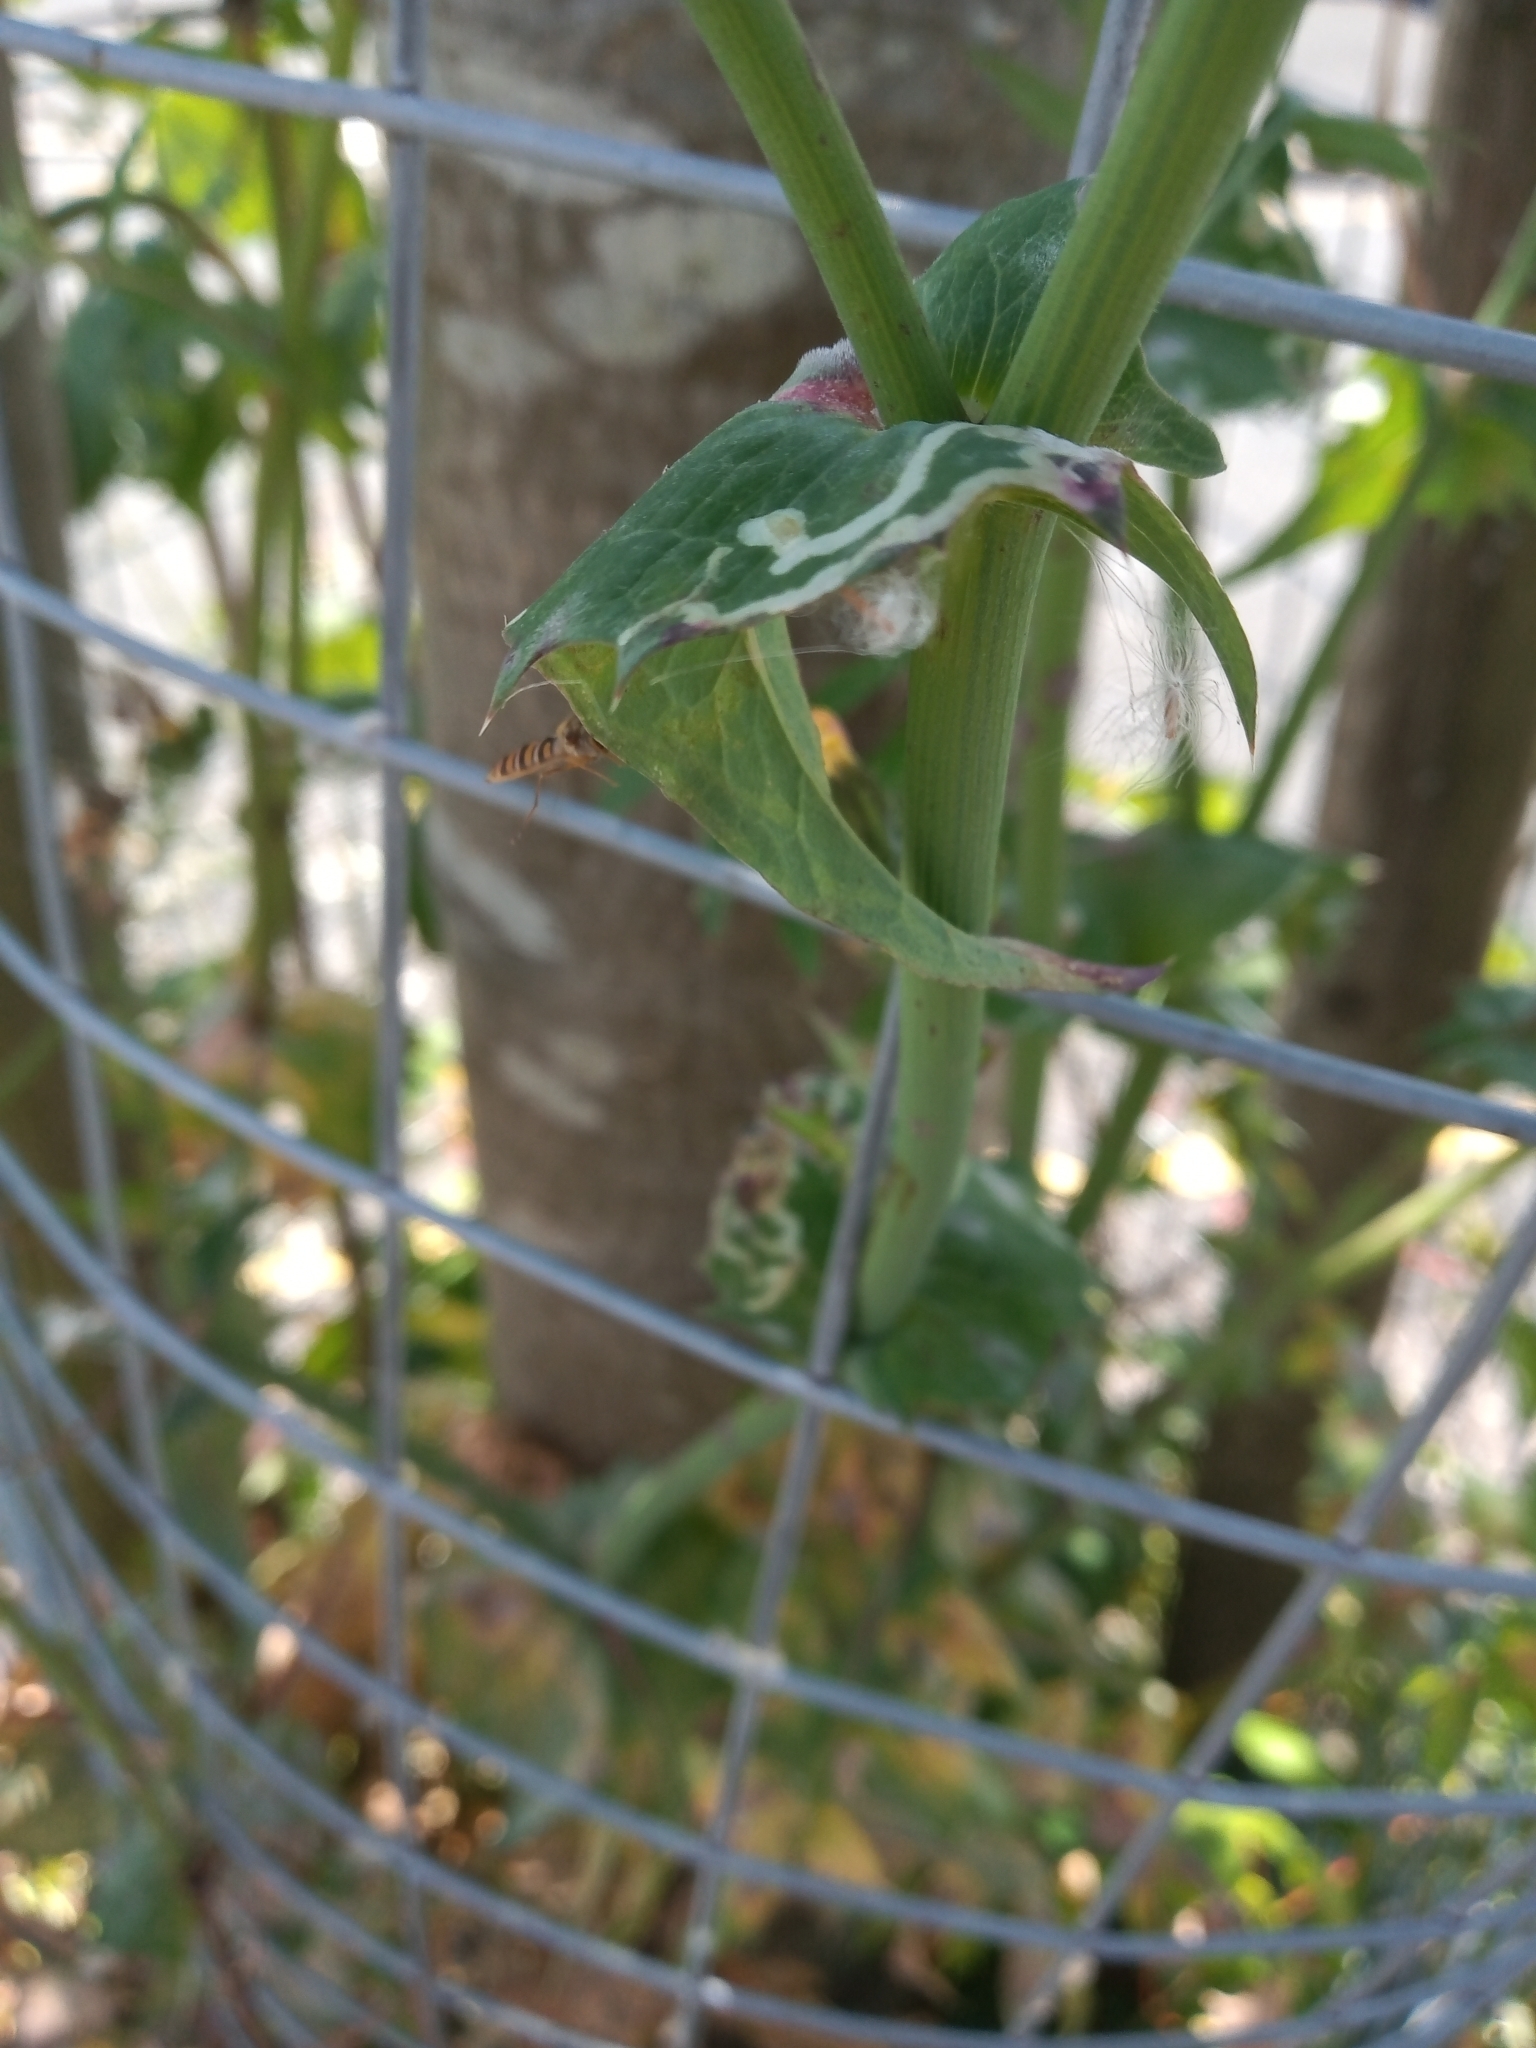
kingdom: Animalia
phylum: Arthropoda
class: Insecta
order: Diptera
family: Syrphidae
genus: Episyrphus
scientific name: Episyrphus balteatus
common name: Marmalade hoverfly
